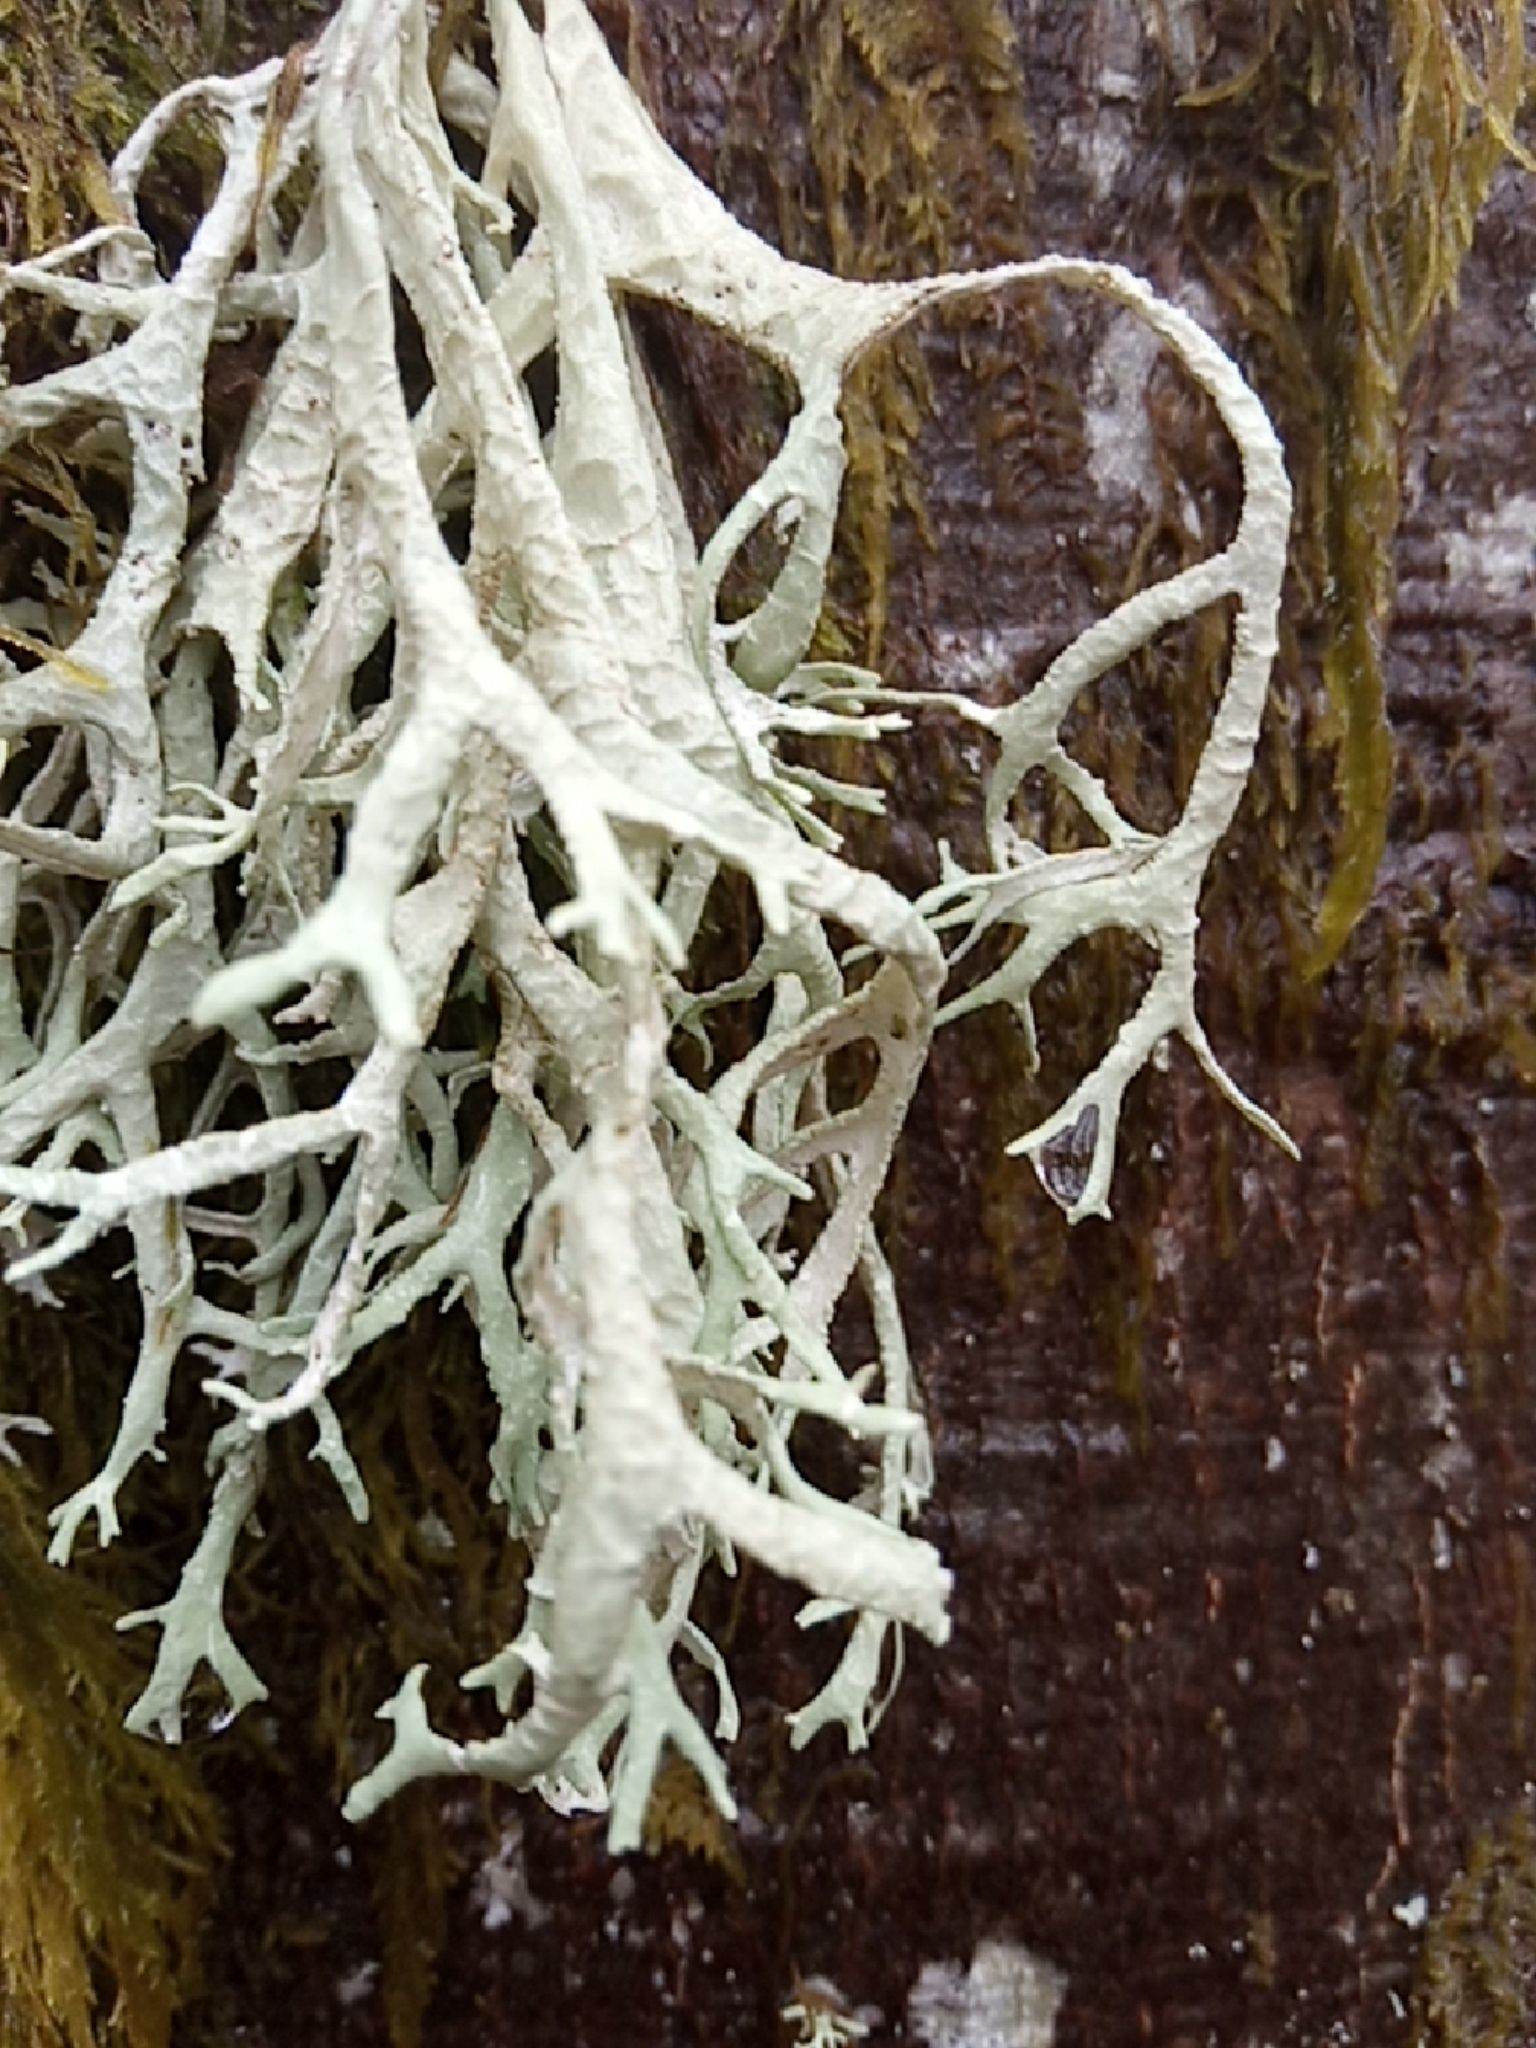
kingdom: Fungi
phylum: Ascomycota
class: Lecanoromycetes
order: Lecanorales
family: Parmeliaceae
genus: Evernia
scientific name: Evernia prunastri
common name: Oak moss
